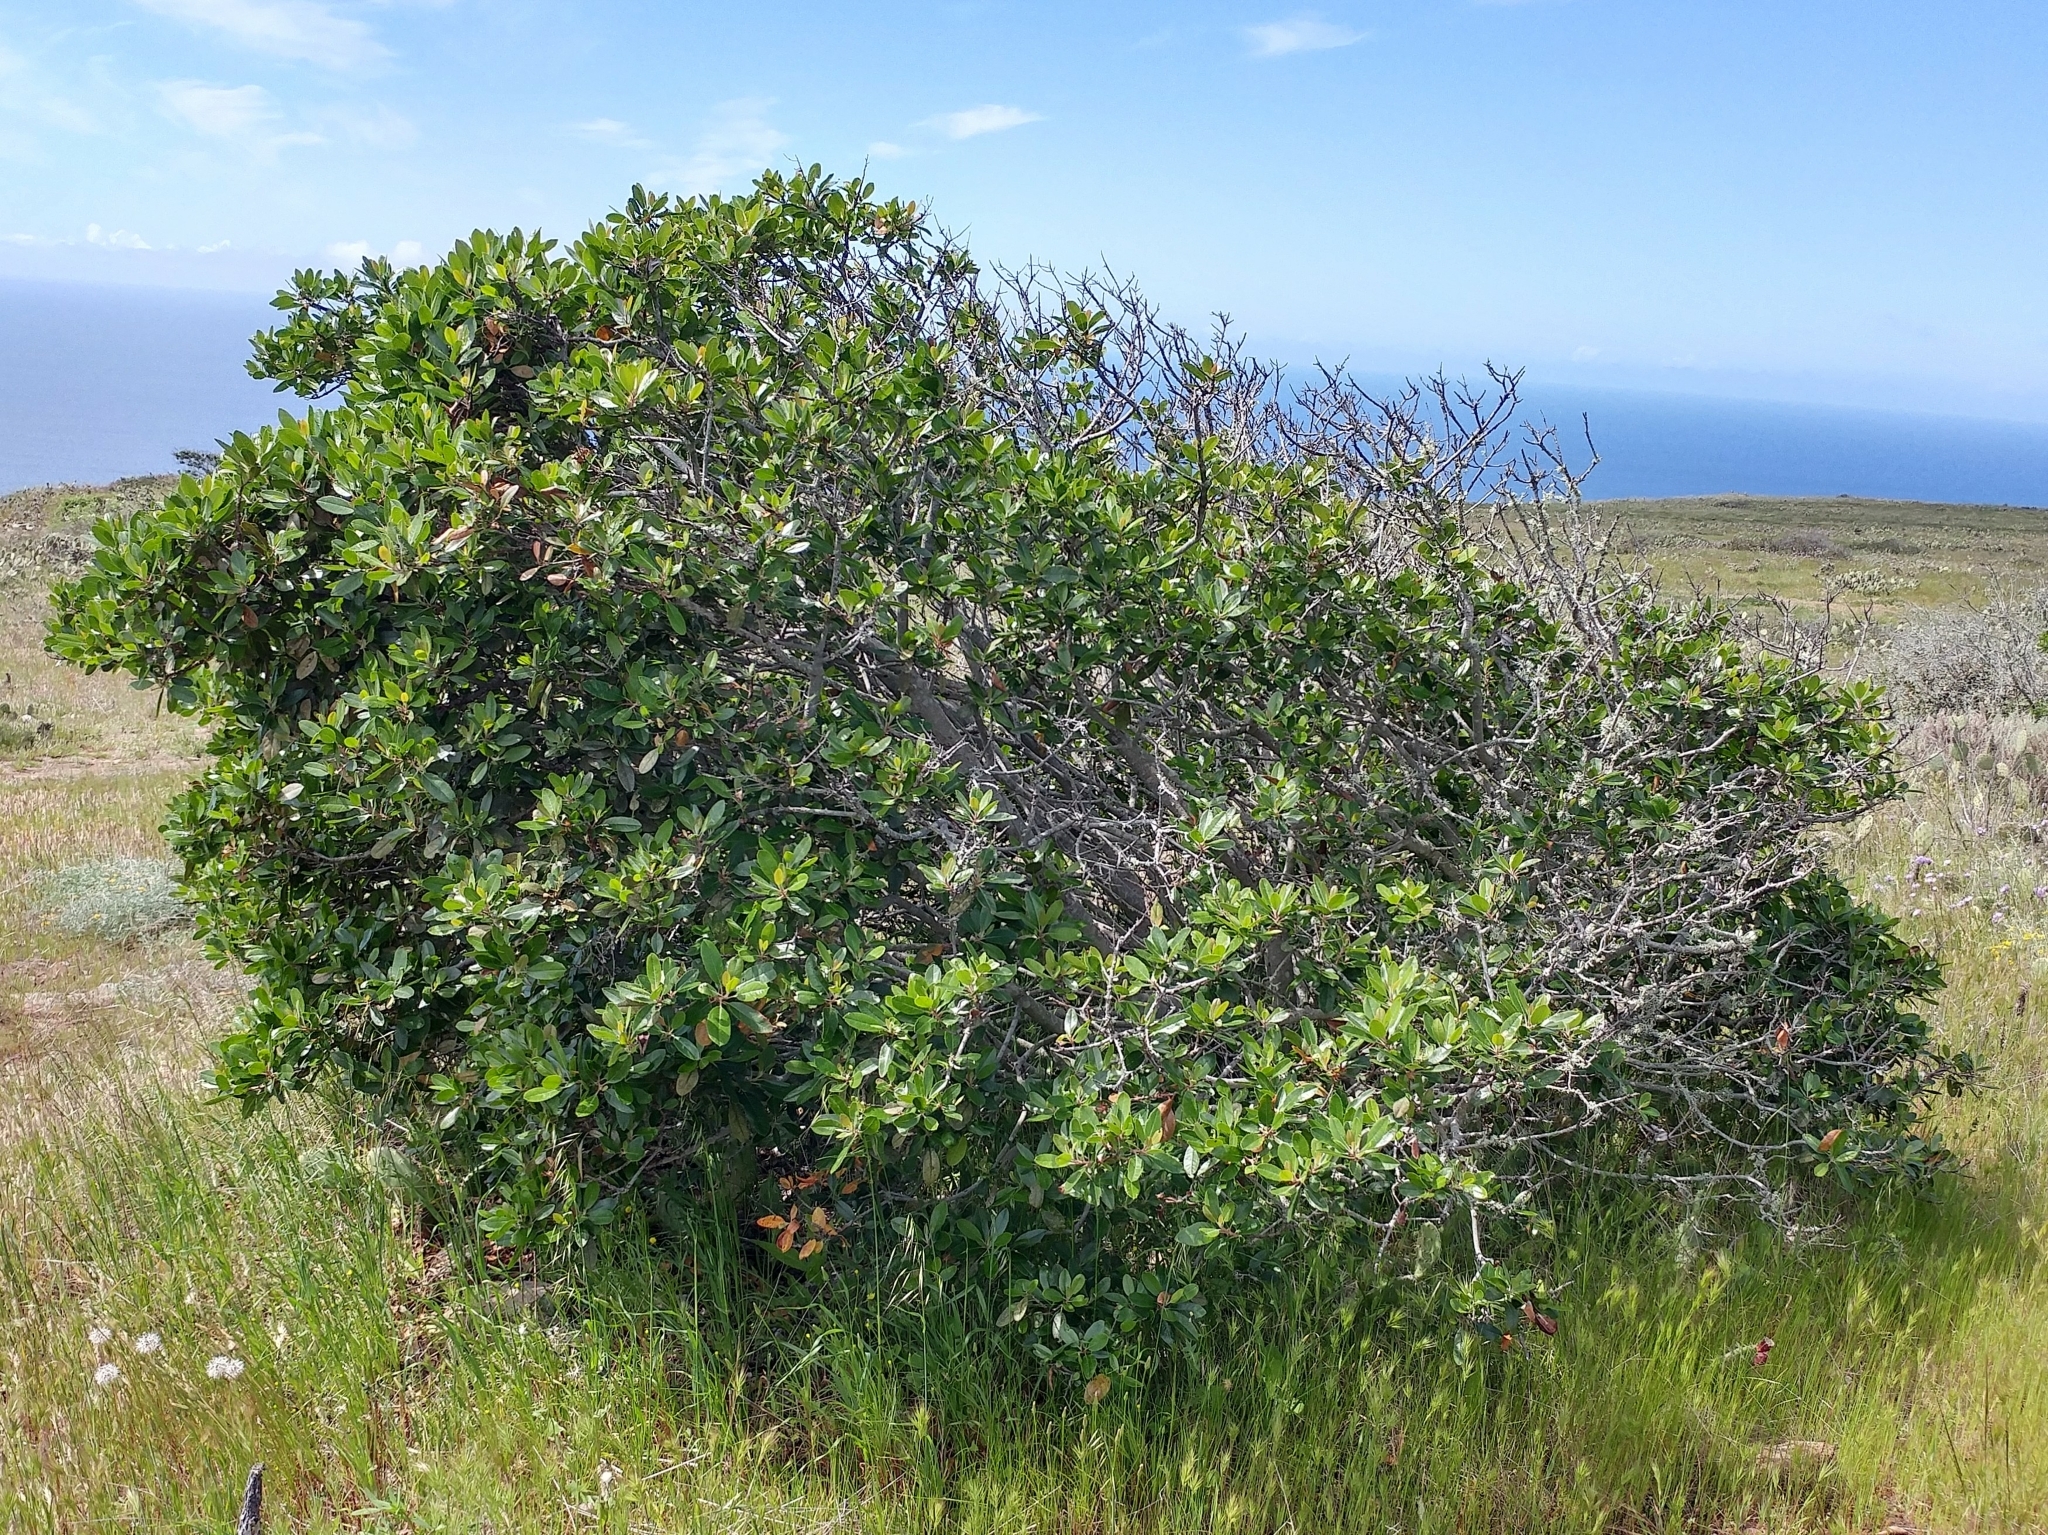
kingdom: Plantae
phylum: Tracheophyta
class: Magnoliopsida
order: Rosales
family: Rosaceae
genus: Heteromeles
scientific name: Heteromeles arbutifolia
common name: California-holly
